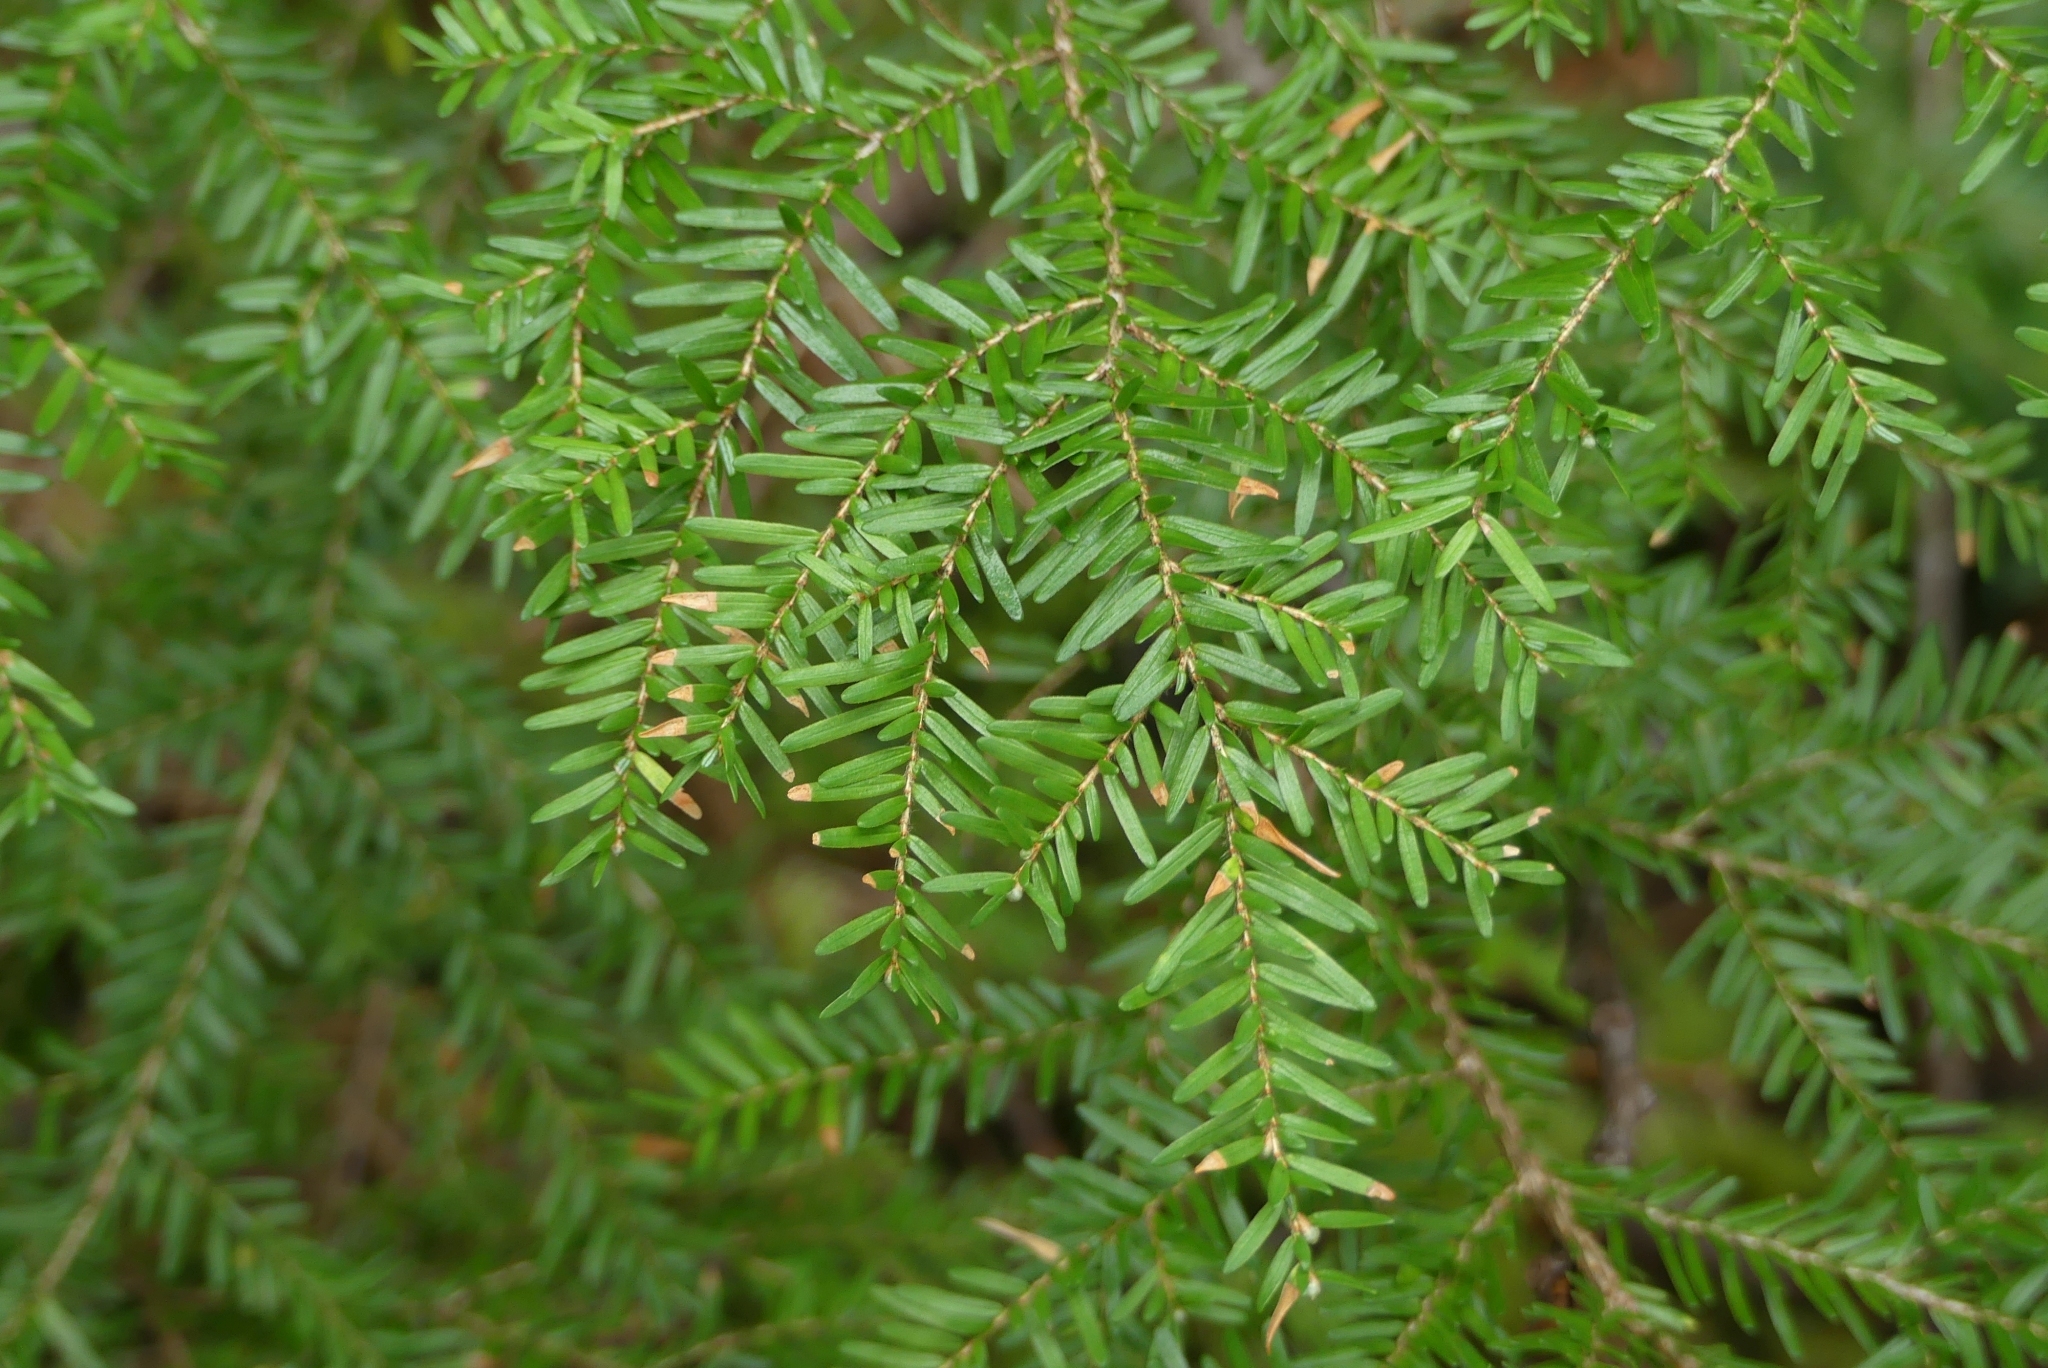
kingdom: Plantae
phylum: Tracheophyta
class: Pinopsida
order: Pinales
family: Pinaceae
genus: Tsuga
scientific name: Tsuga heterophylla
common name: Western hemlock
